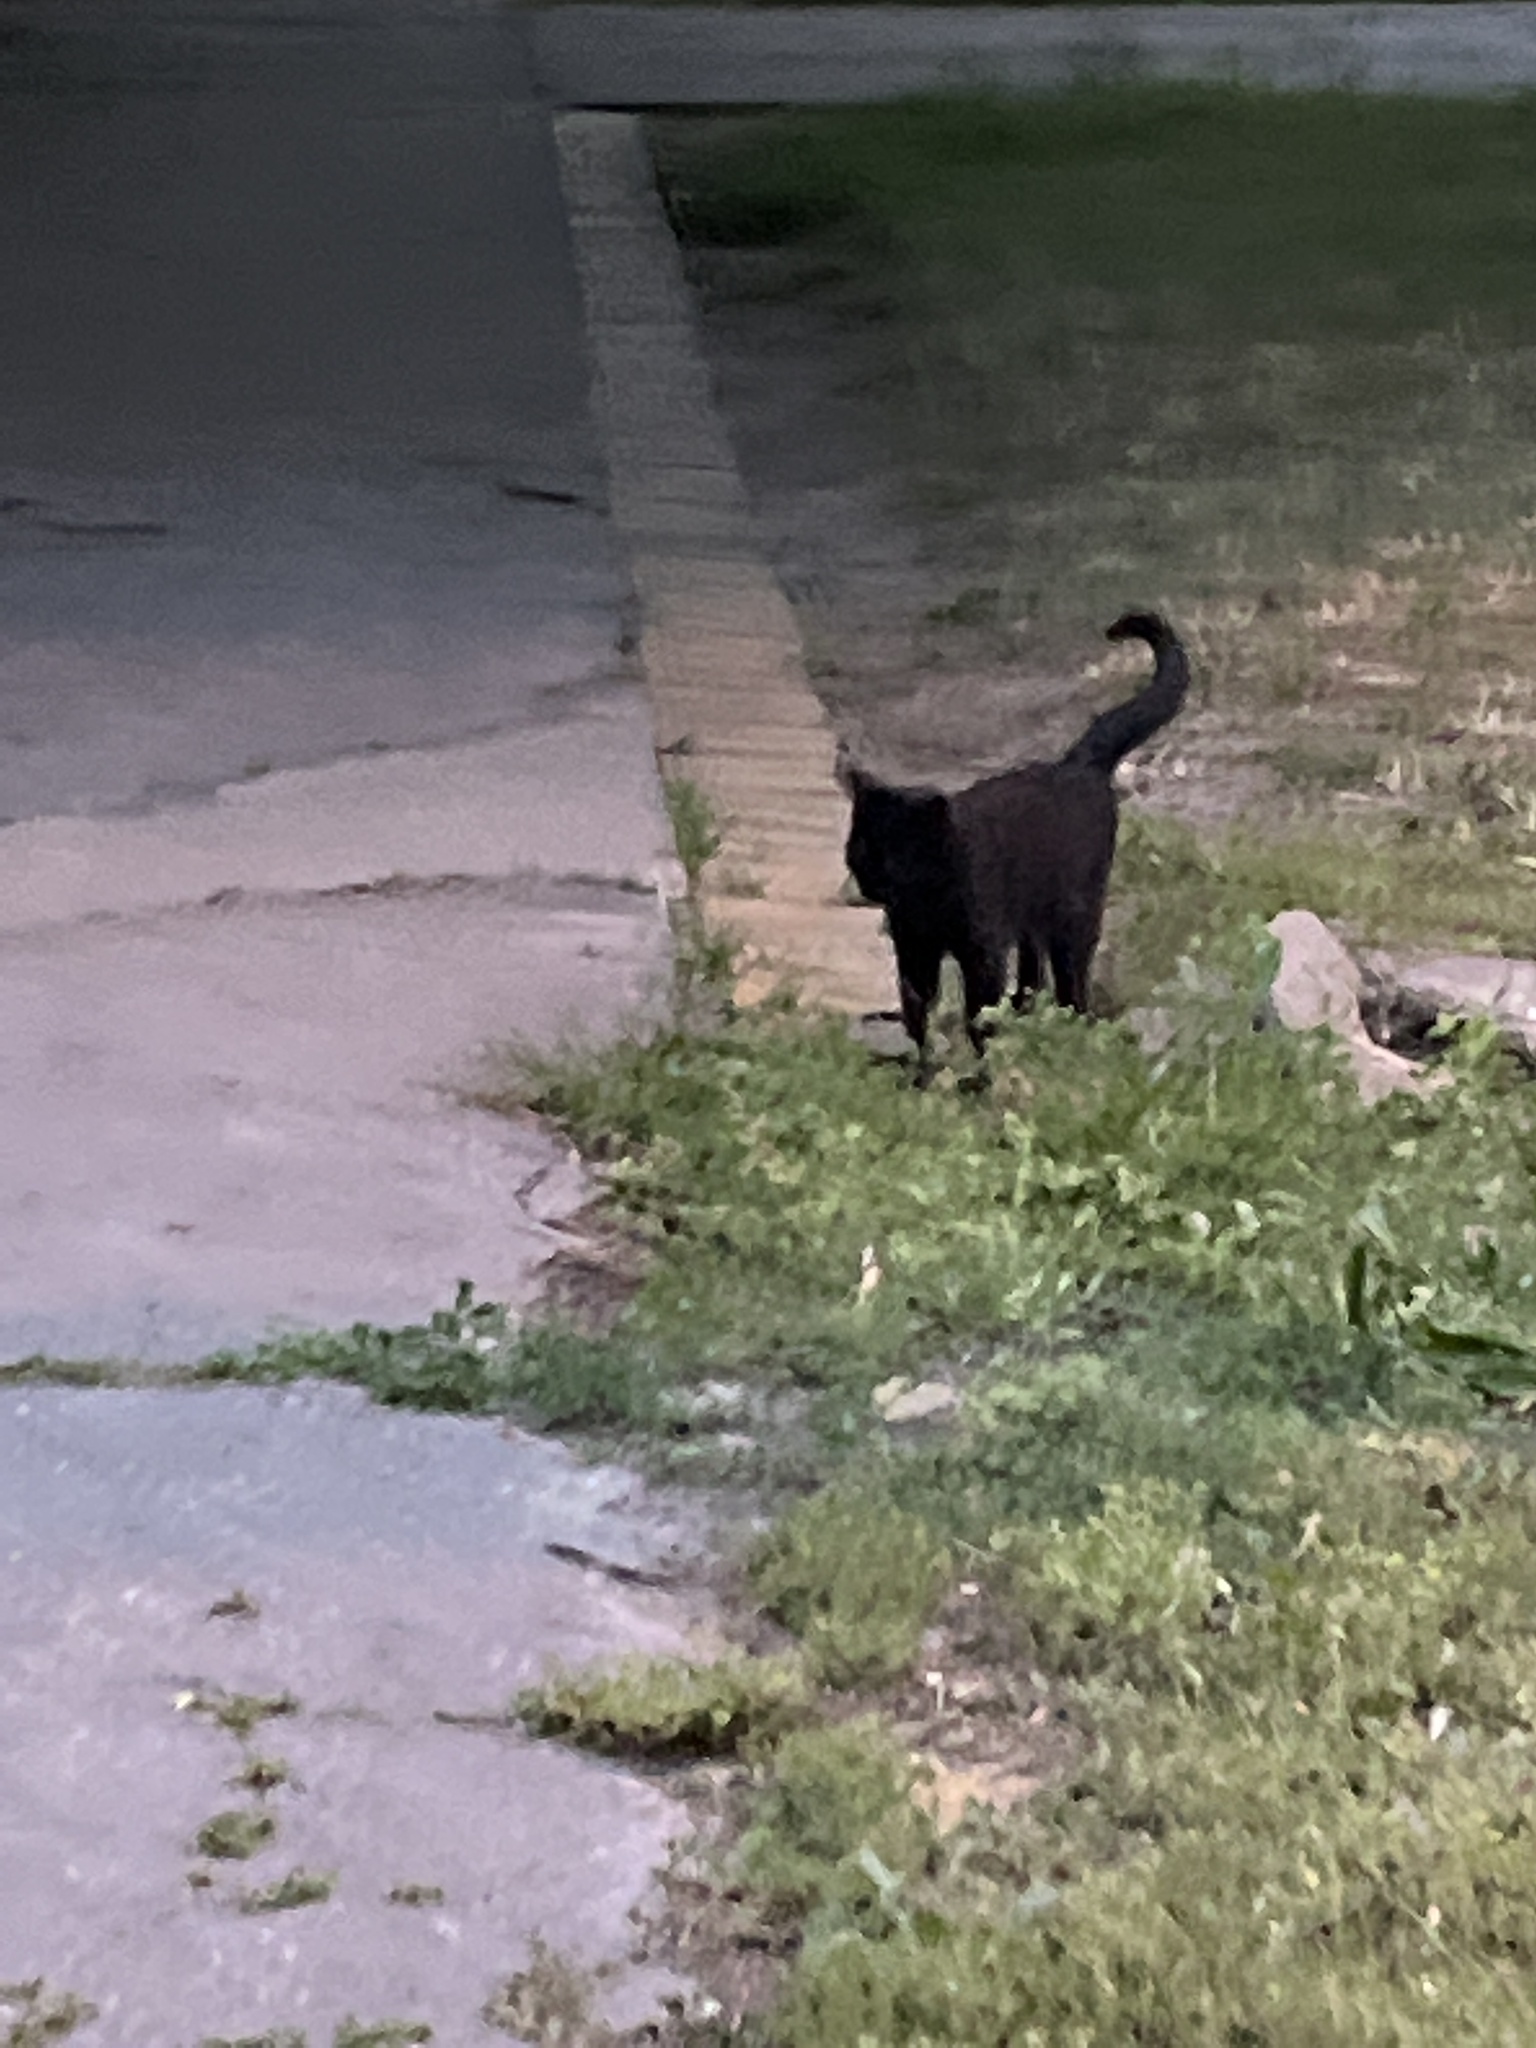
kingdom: Animalia
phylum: Chordata
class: Mammalia
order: Carnivora
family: Felidae
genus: Felis
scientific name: Felis catus
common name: Domestic cat
